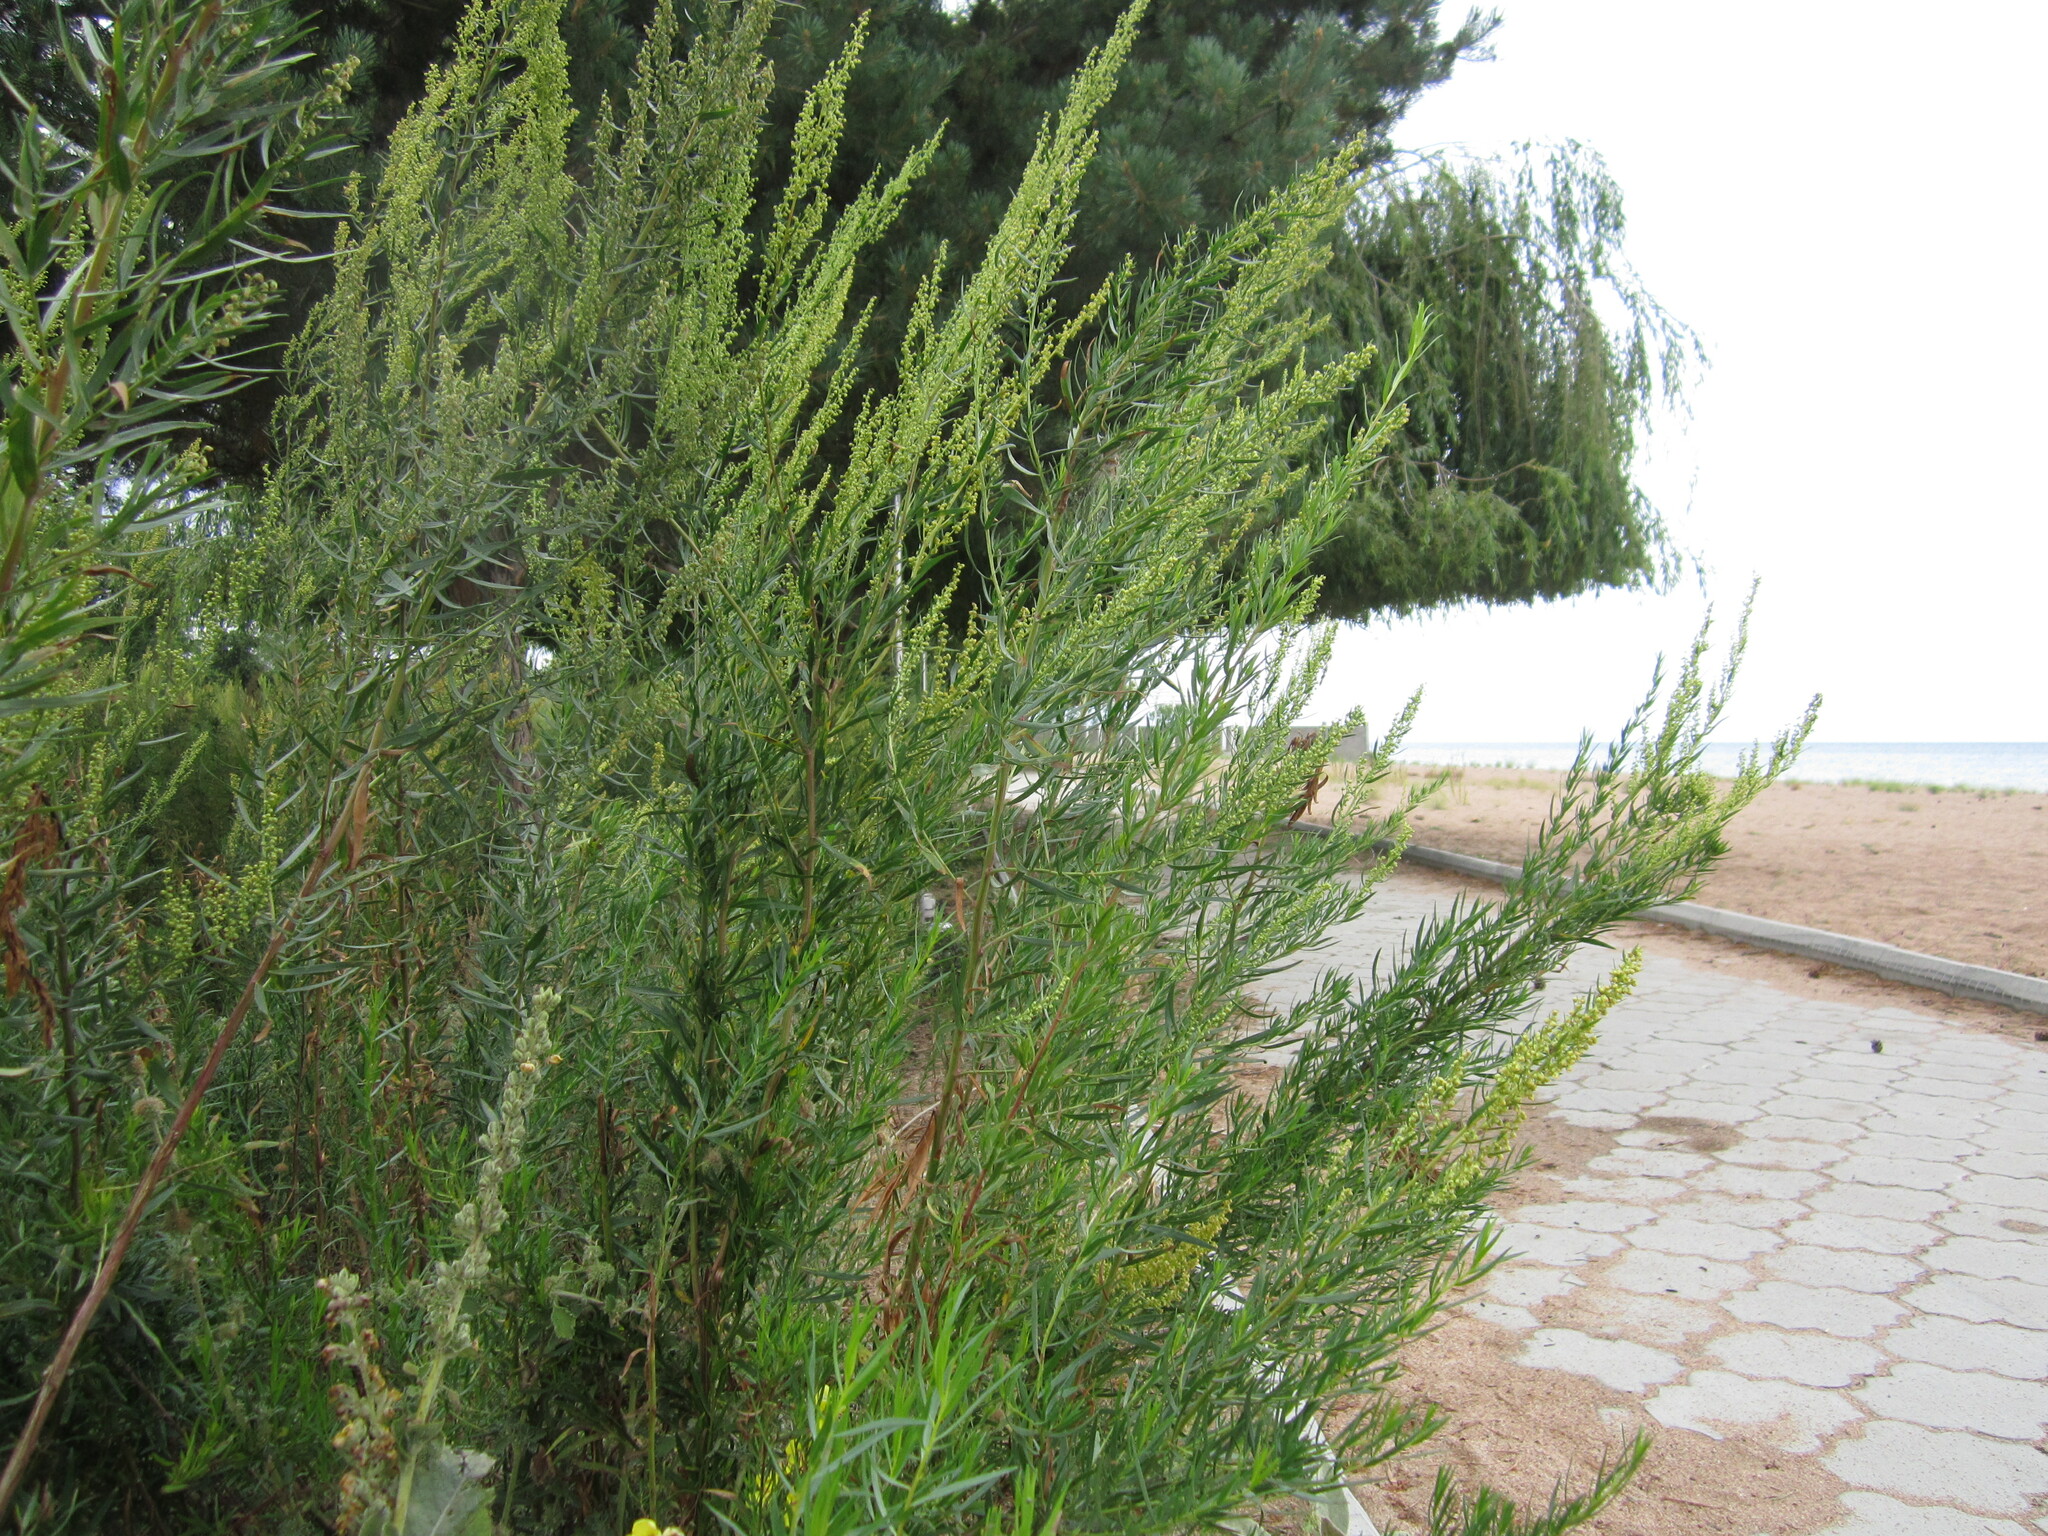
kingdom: Plantae
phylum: Tracheophyta
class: Magnoliopsida
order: Asterales
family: Asteraceae
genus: Artemisia
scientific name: Artemisia dracunculus
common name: Tarragon
